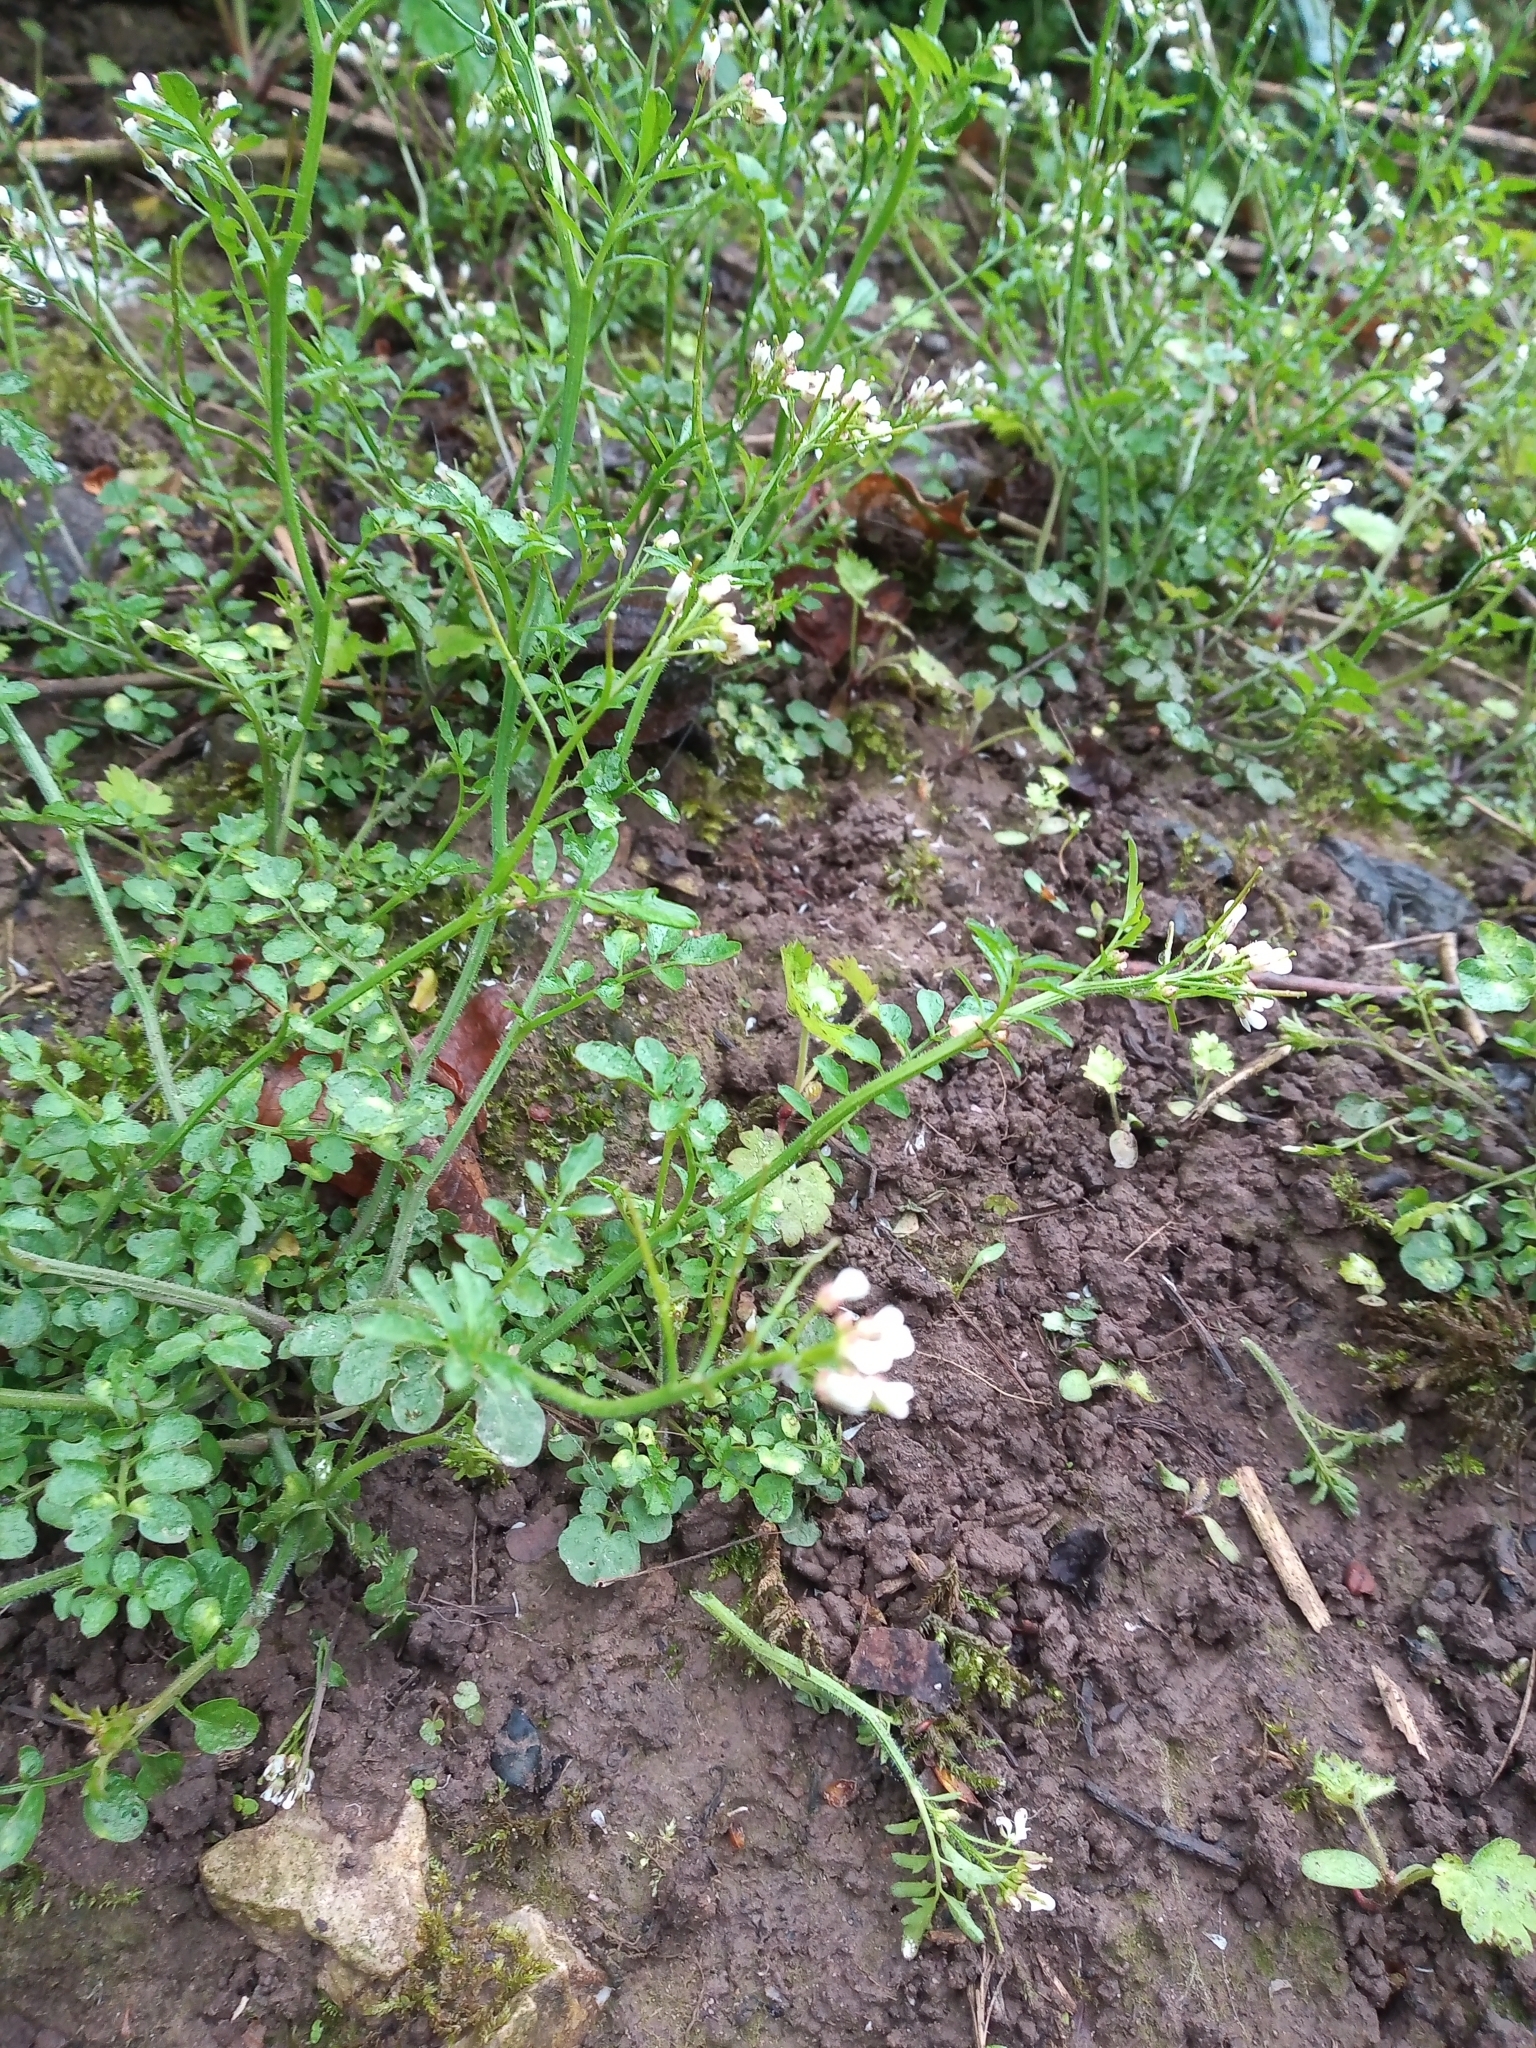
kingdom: Plantae
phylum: Tracheophyta
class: Magnoliopsida
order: Brassicales
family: Brassicaceae
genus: Cardamine
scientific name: Cardamine flexuosa
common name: Woodland bittercress
